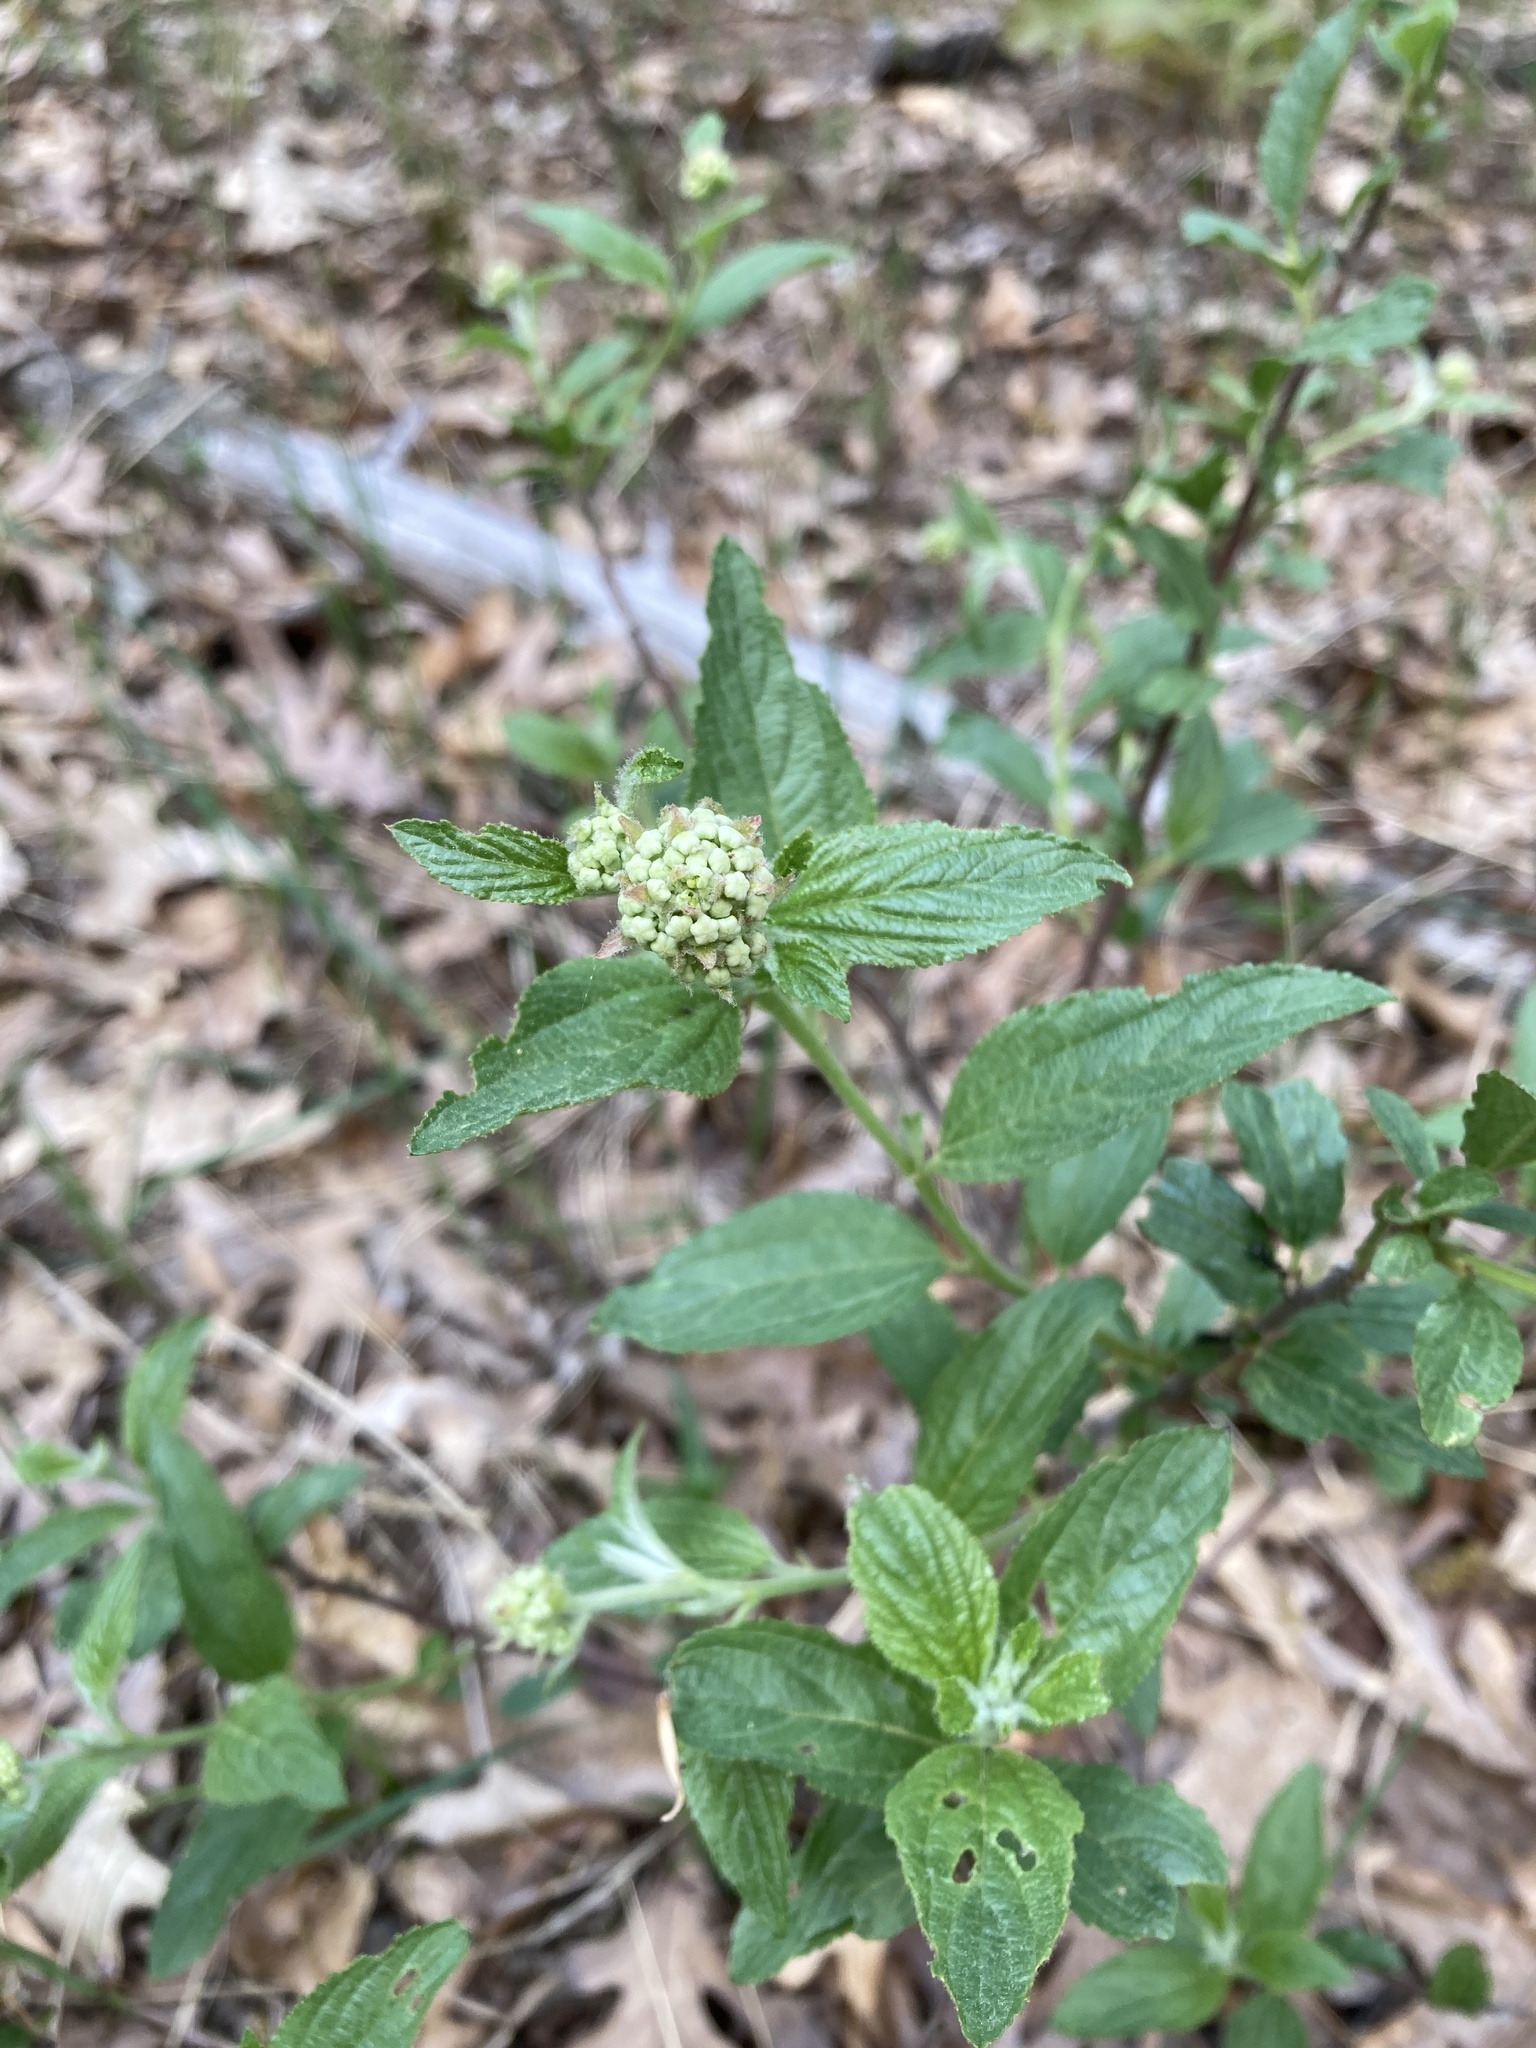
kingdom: Plantae
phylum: Tracheophyta
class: Magnoliopsida
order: Rosales
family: Rhamnaceae
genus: Ceanothus
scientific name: Ceanothus herbaceus
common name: Inland ceanothus
